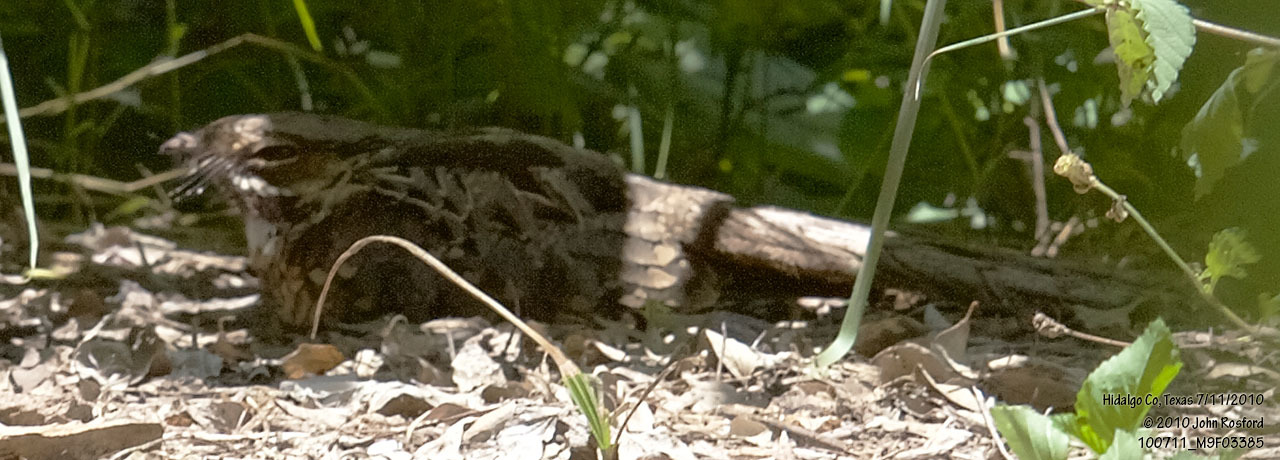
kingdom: Animalia
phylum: Chordata
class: Aves
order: Caprimulgiformes
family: Caprimulgidae
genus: Nyctidromus
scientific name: Nyctidromus albicollis
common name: Pauraque
